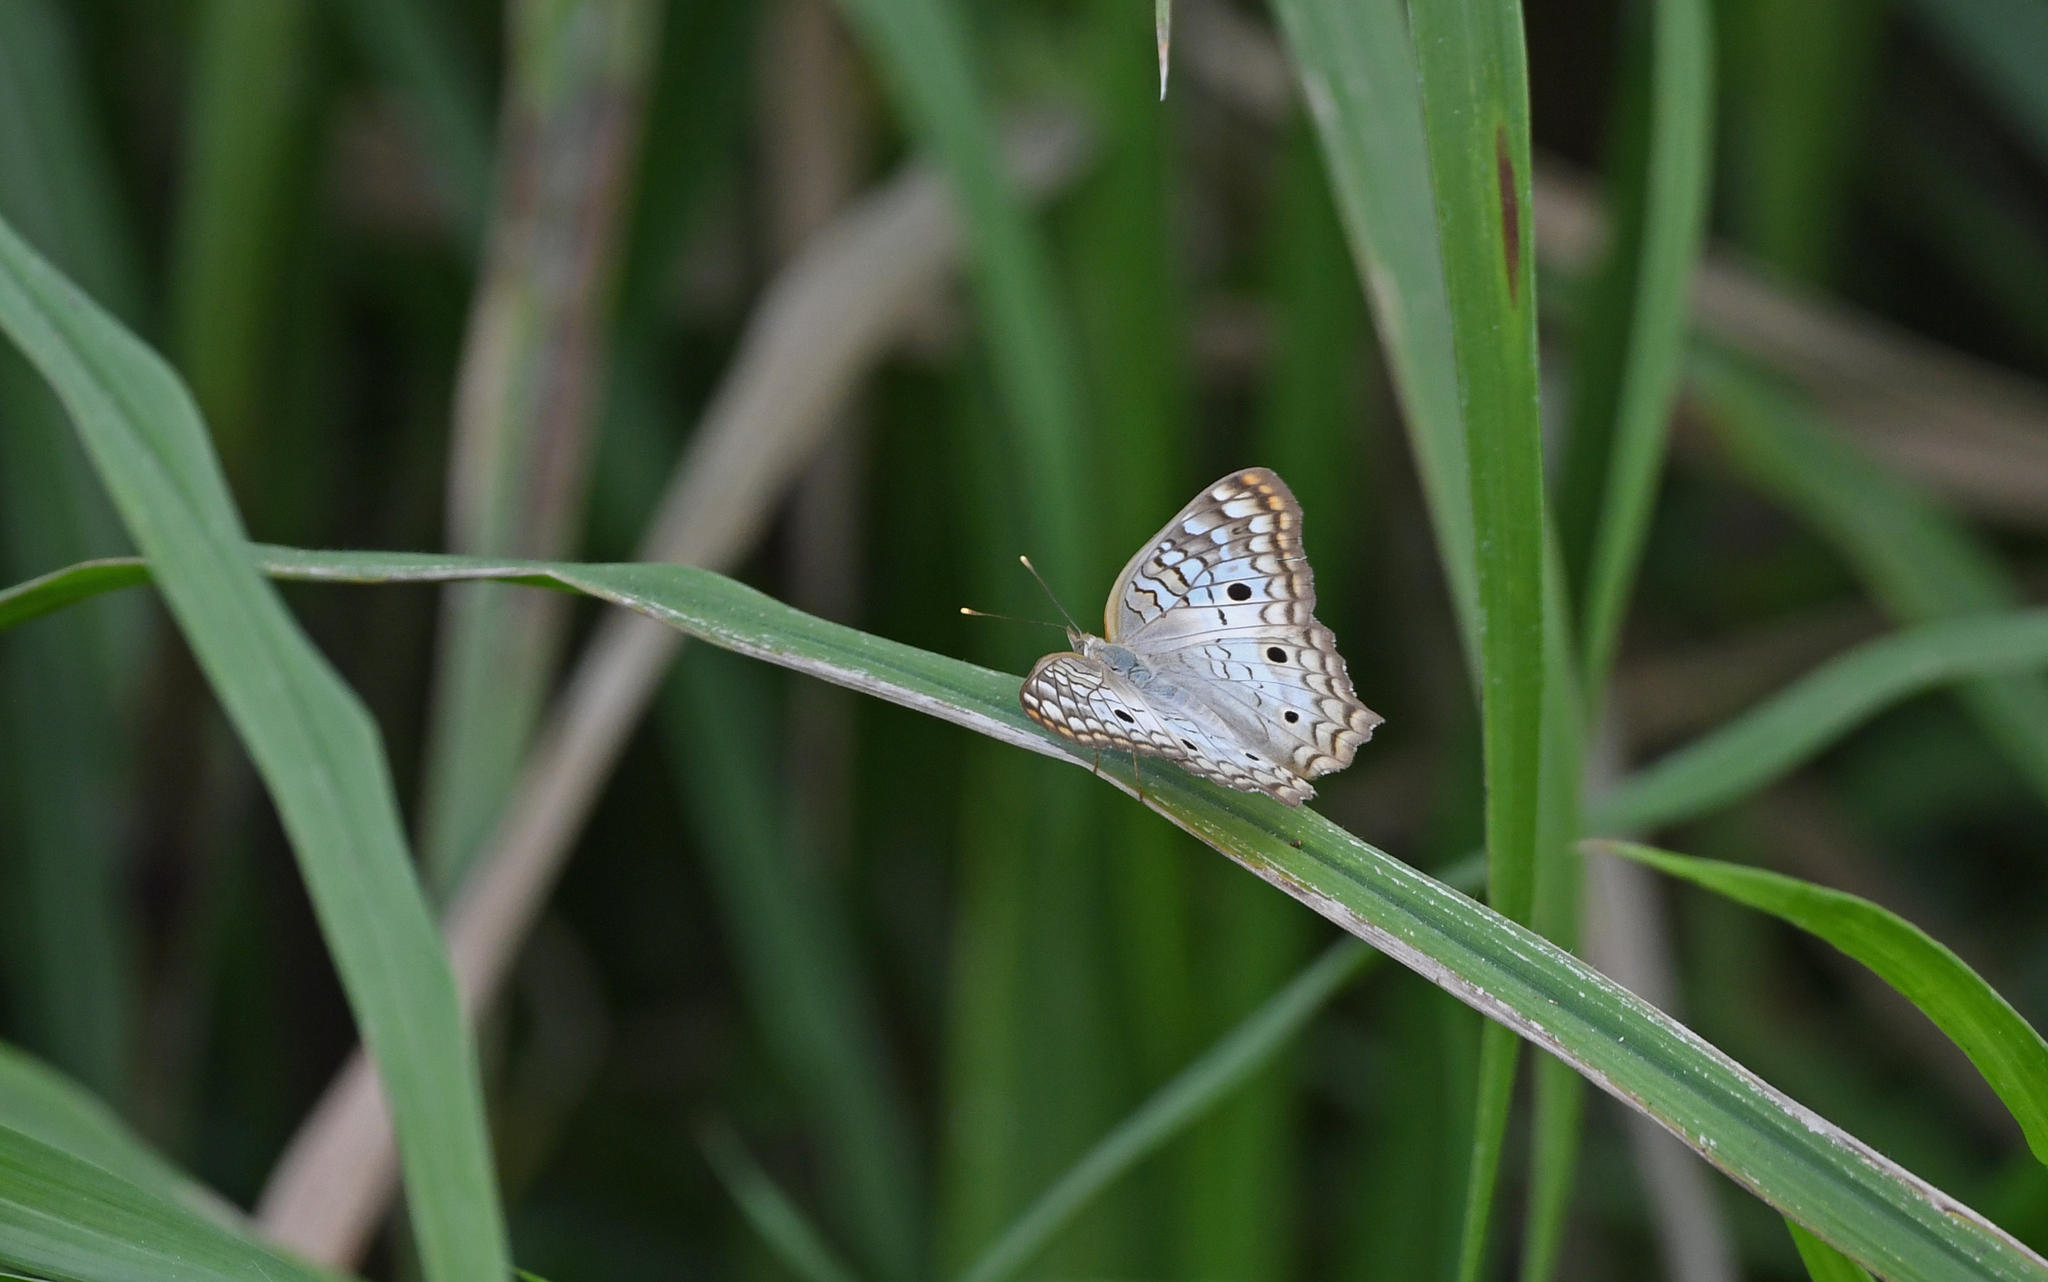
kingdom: Animalia
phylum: Arthropoda
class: Insecta
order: Lepidoptera
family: Nymphalidae
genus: Anartia
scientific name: Anartia jatrophae
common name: White peacock
